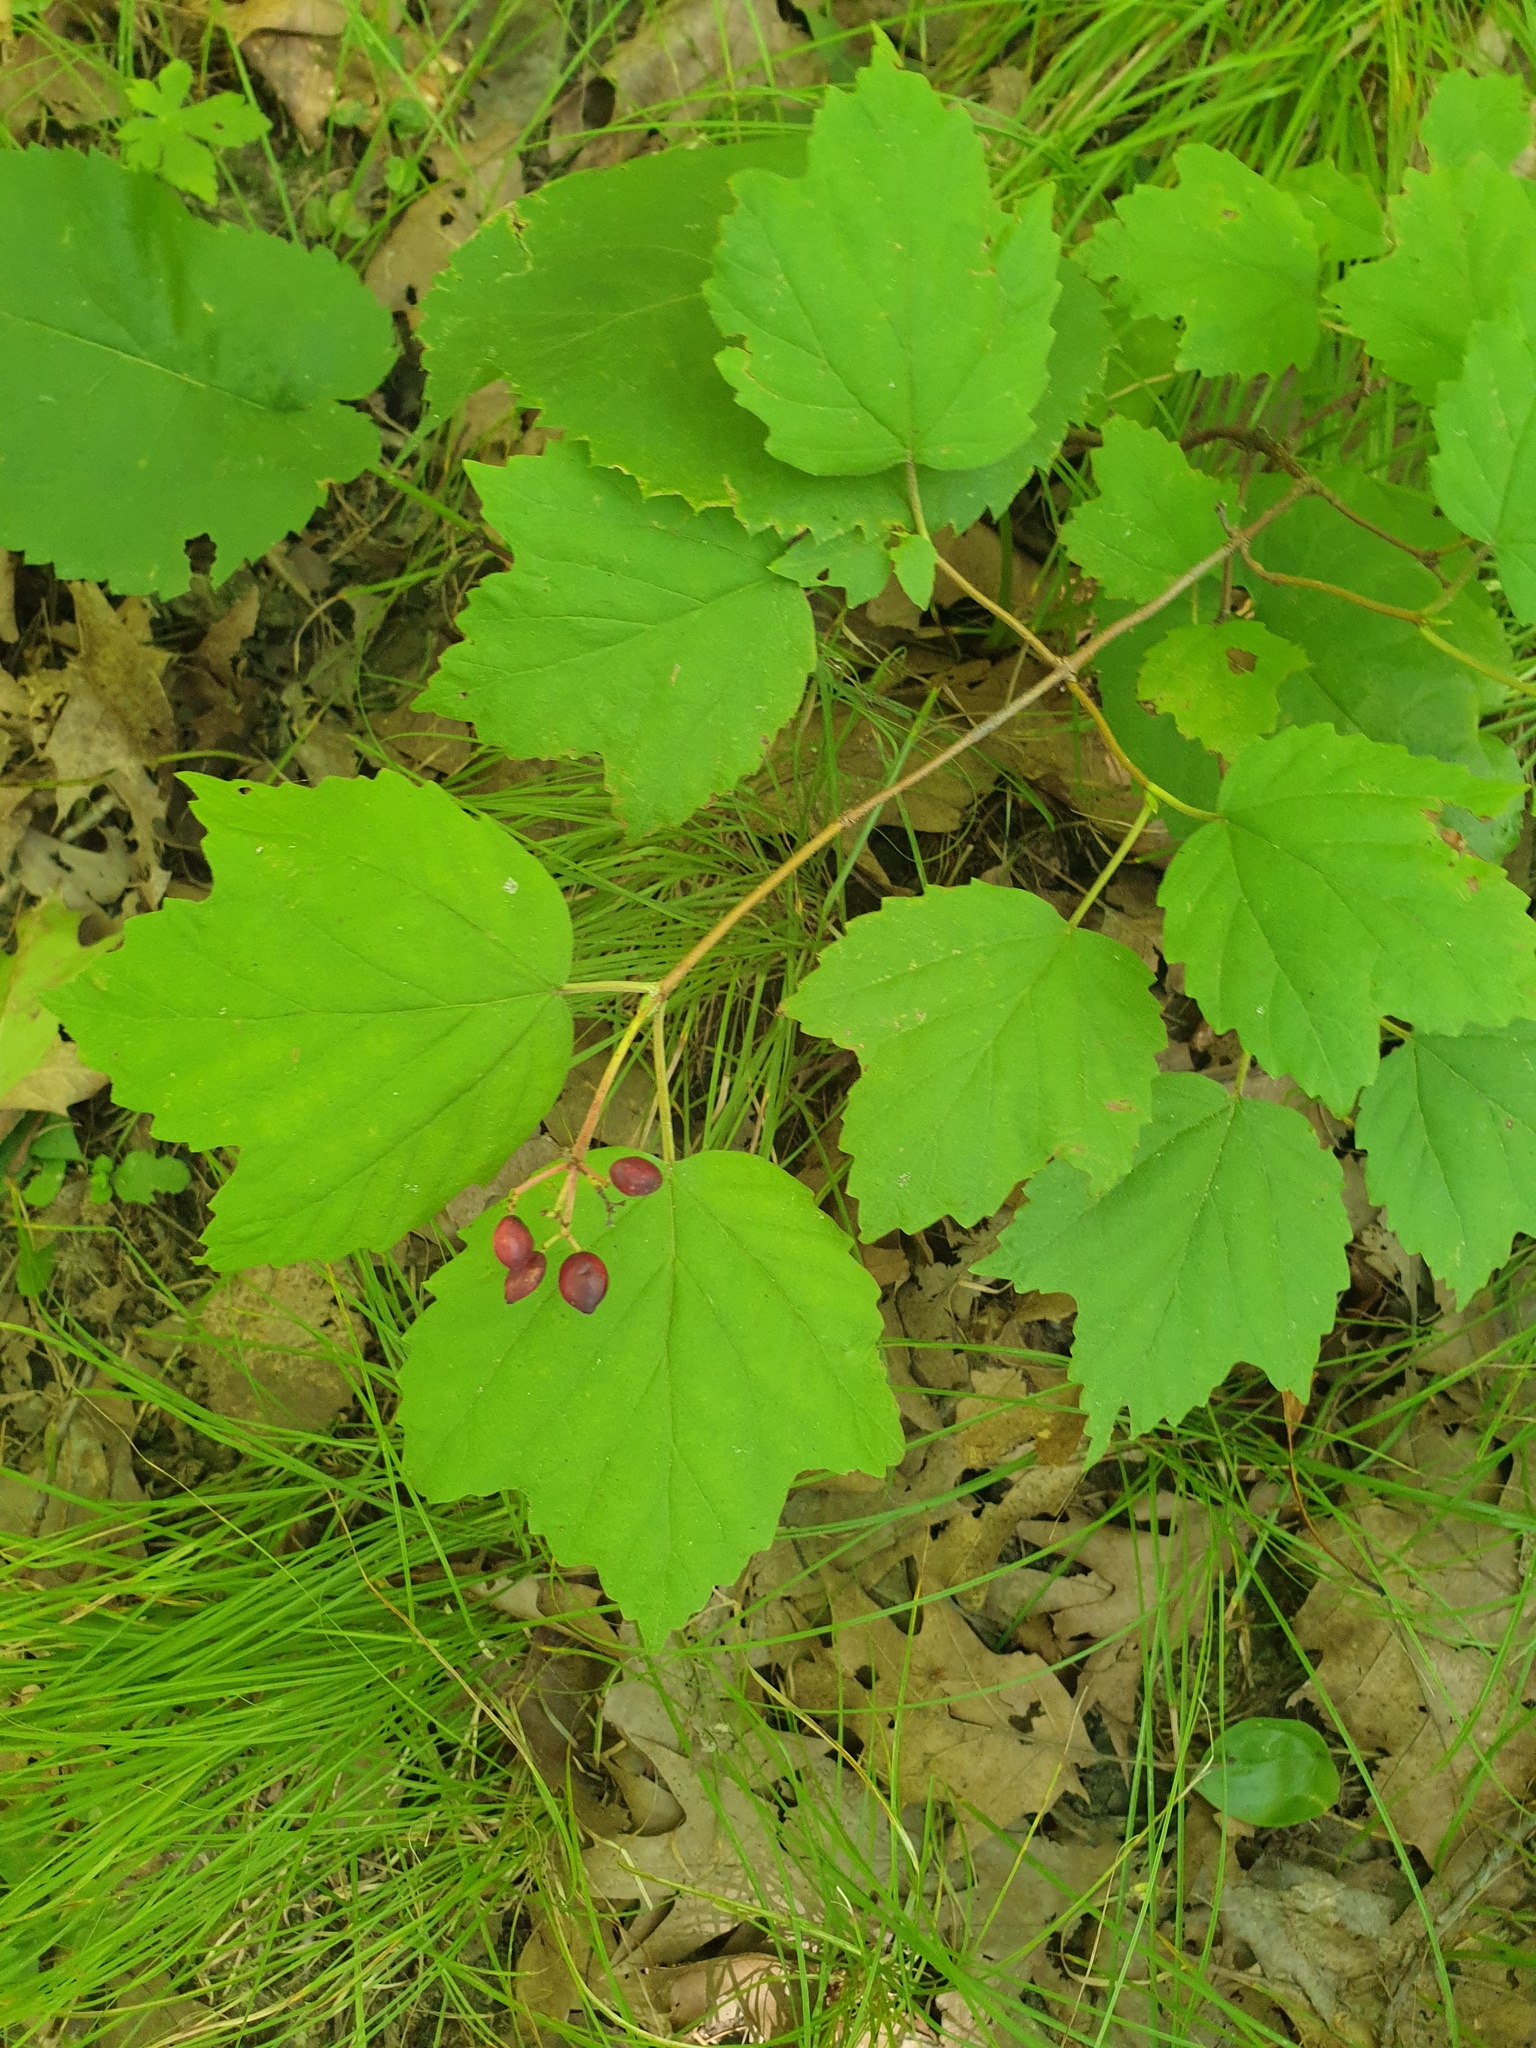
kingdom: Plantae
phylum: Tracheophyta
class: Magnoliopsida
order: Dipsacales
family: Viburnaceae
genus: Viburnum
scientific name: Viburnum acerifolium
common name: Dockmackie
